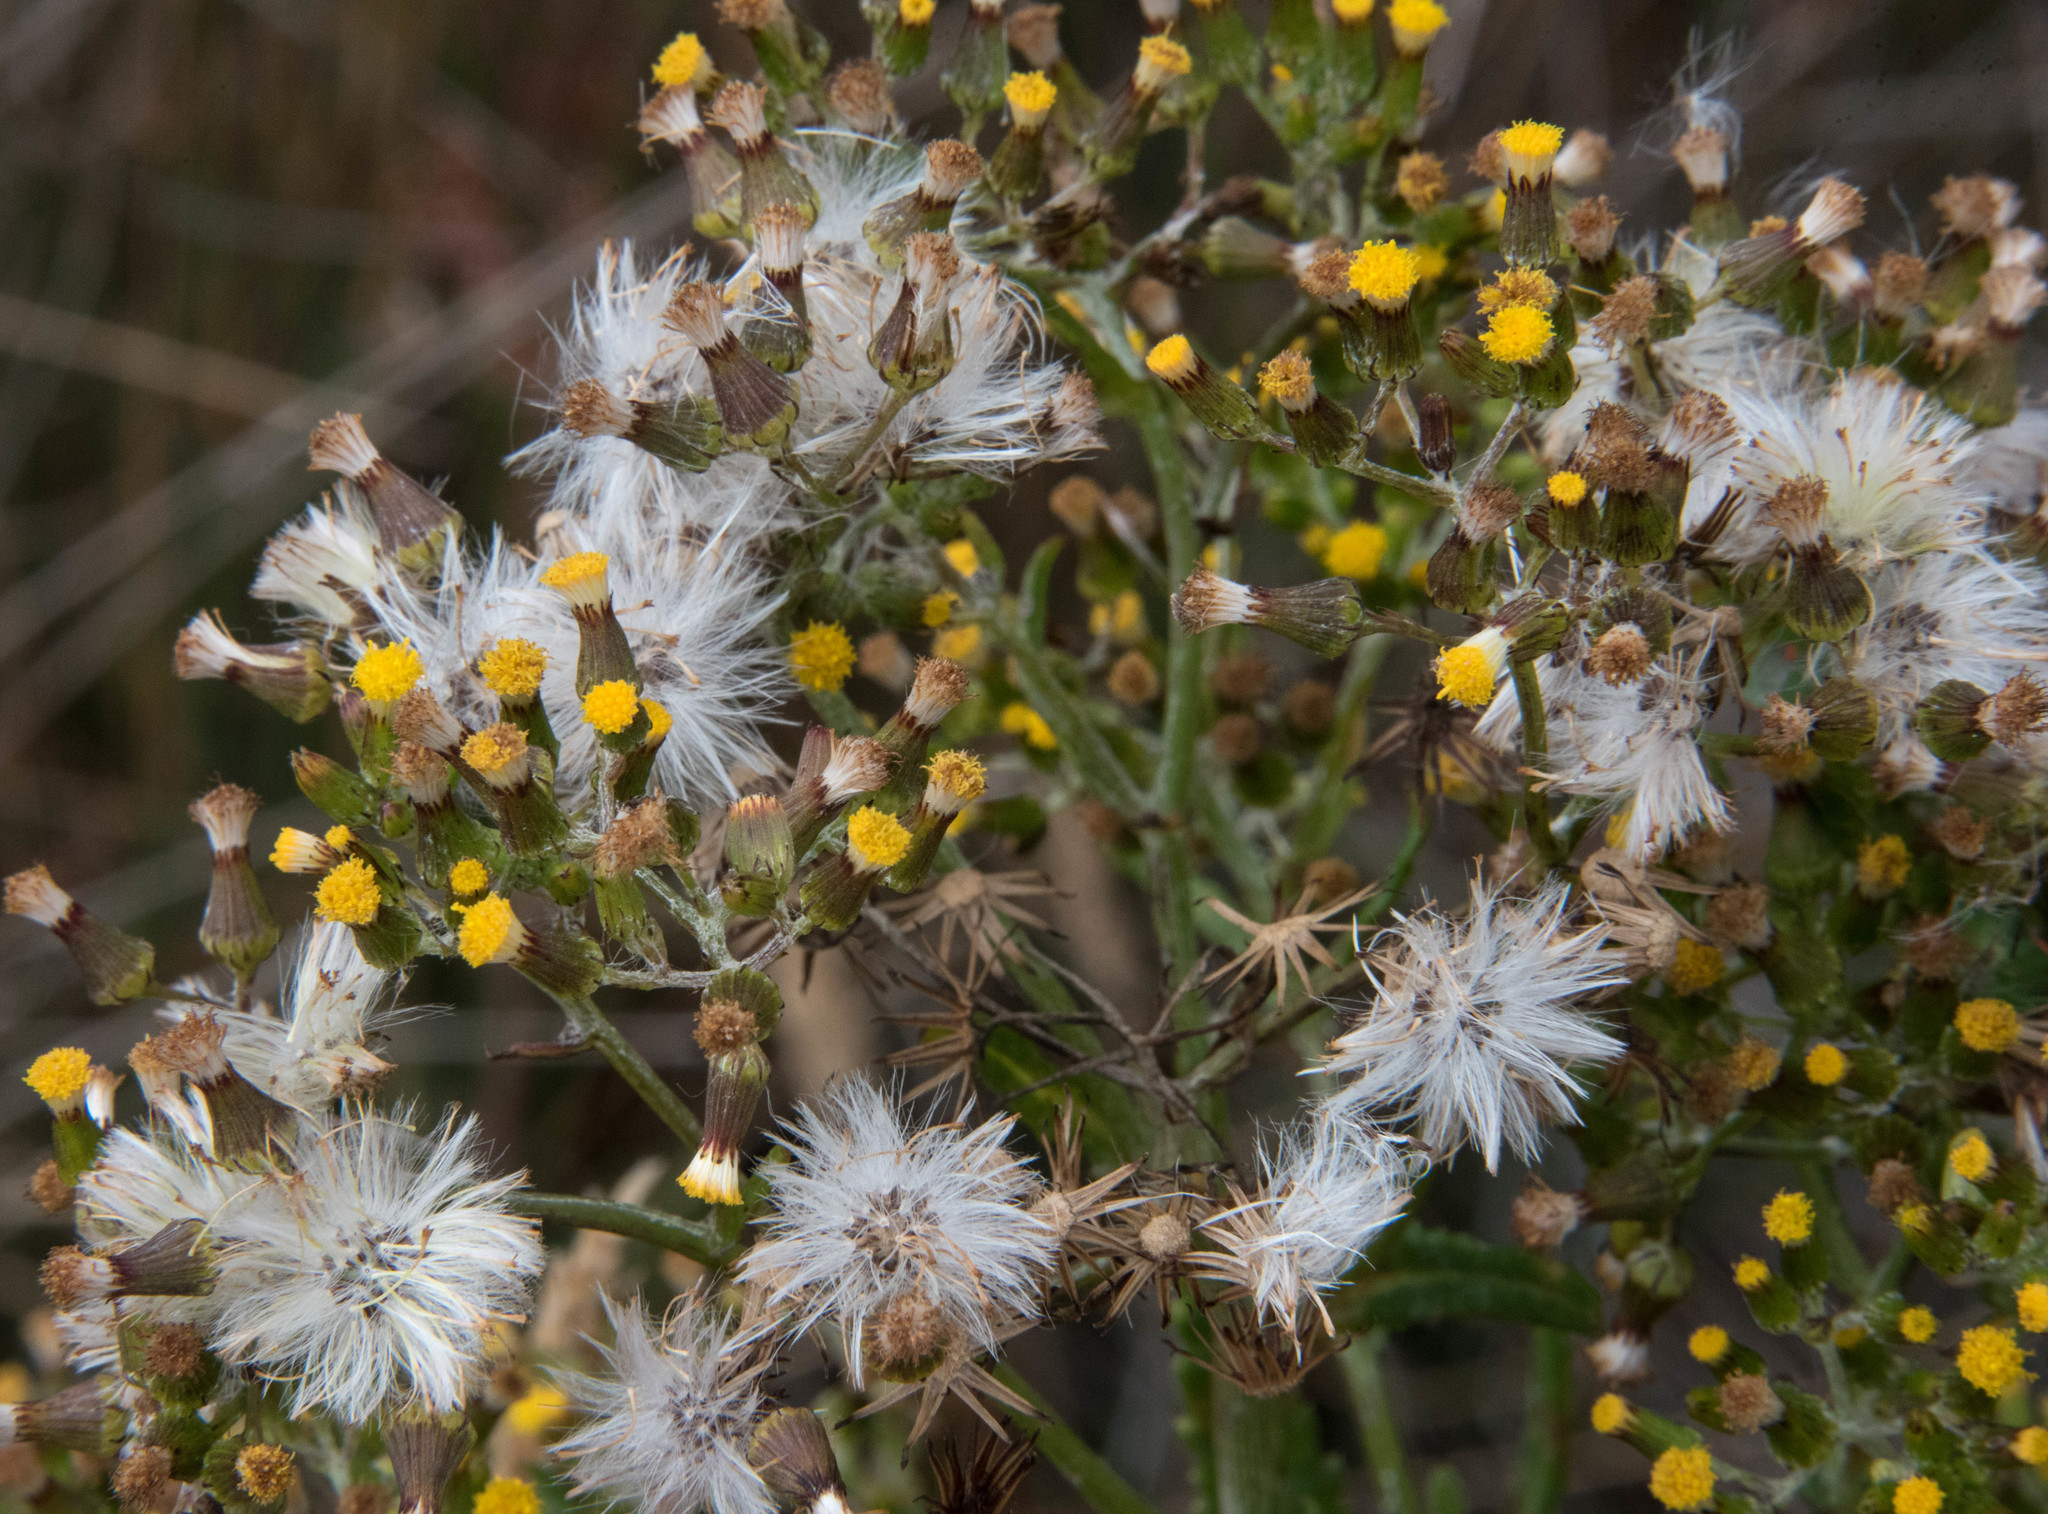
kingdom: Plantae
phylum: Tracheophyta
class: Magnoliopsida
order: Asterales
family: Asteraceae
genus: Senecio
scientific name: Senecio minimus
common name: Toothed fireweed
